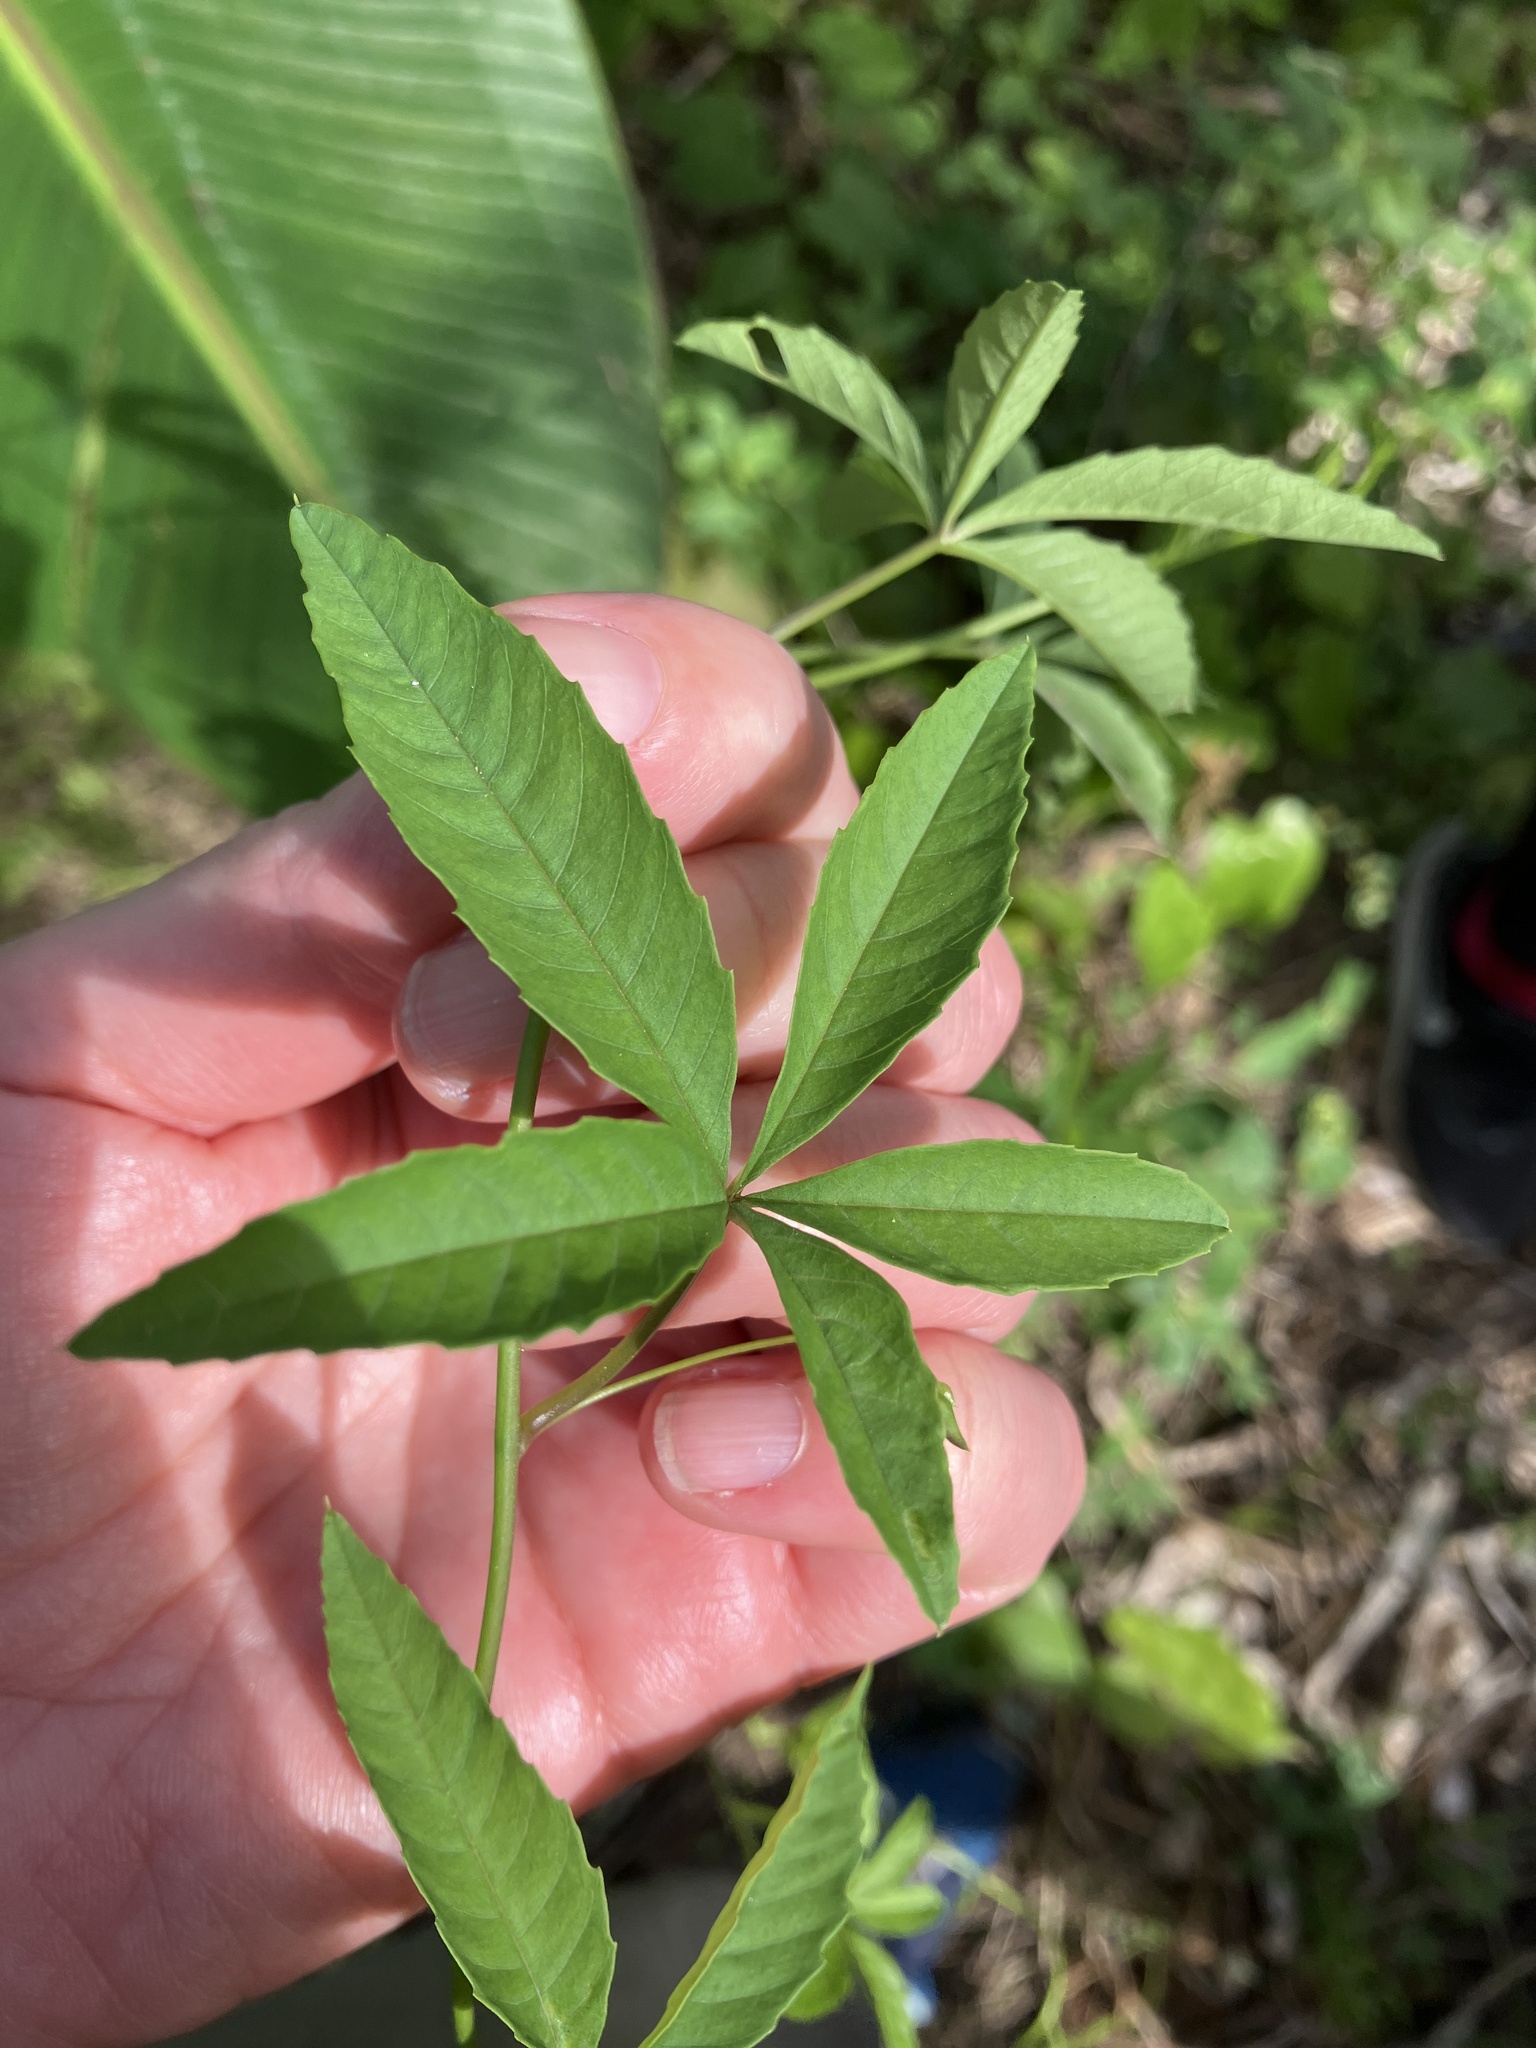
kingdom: Plantae
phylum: Tracheophyta
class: Magnoliopsida
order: Solanales
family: Convolvulaceae
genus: Distimake
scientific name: Distimake quinquefolius
